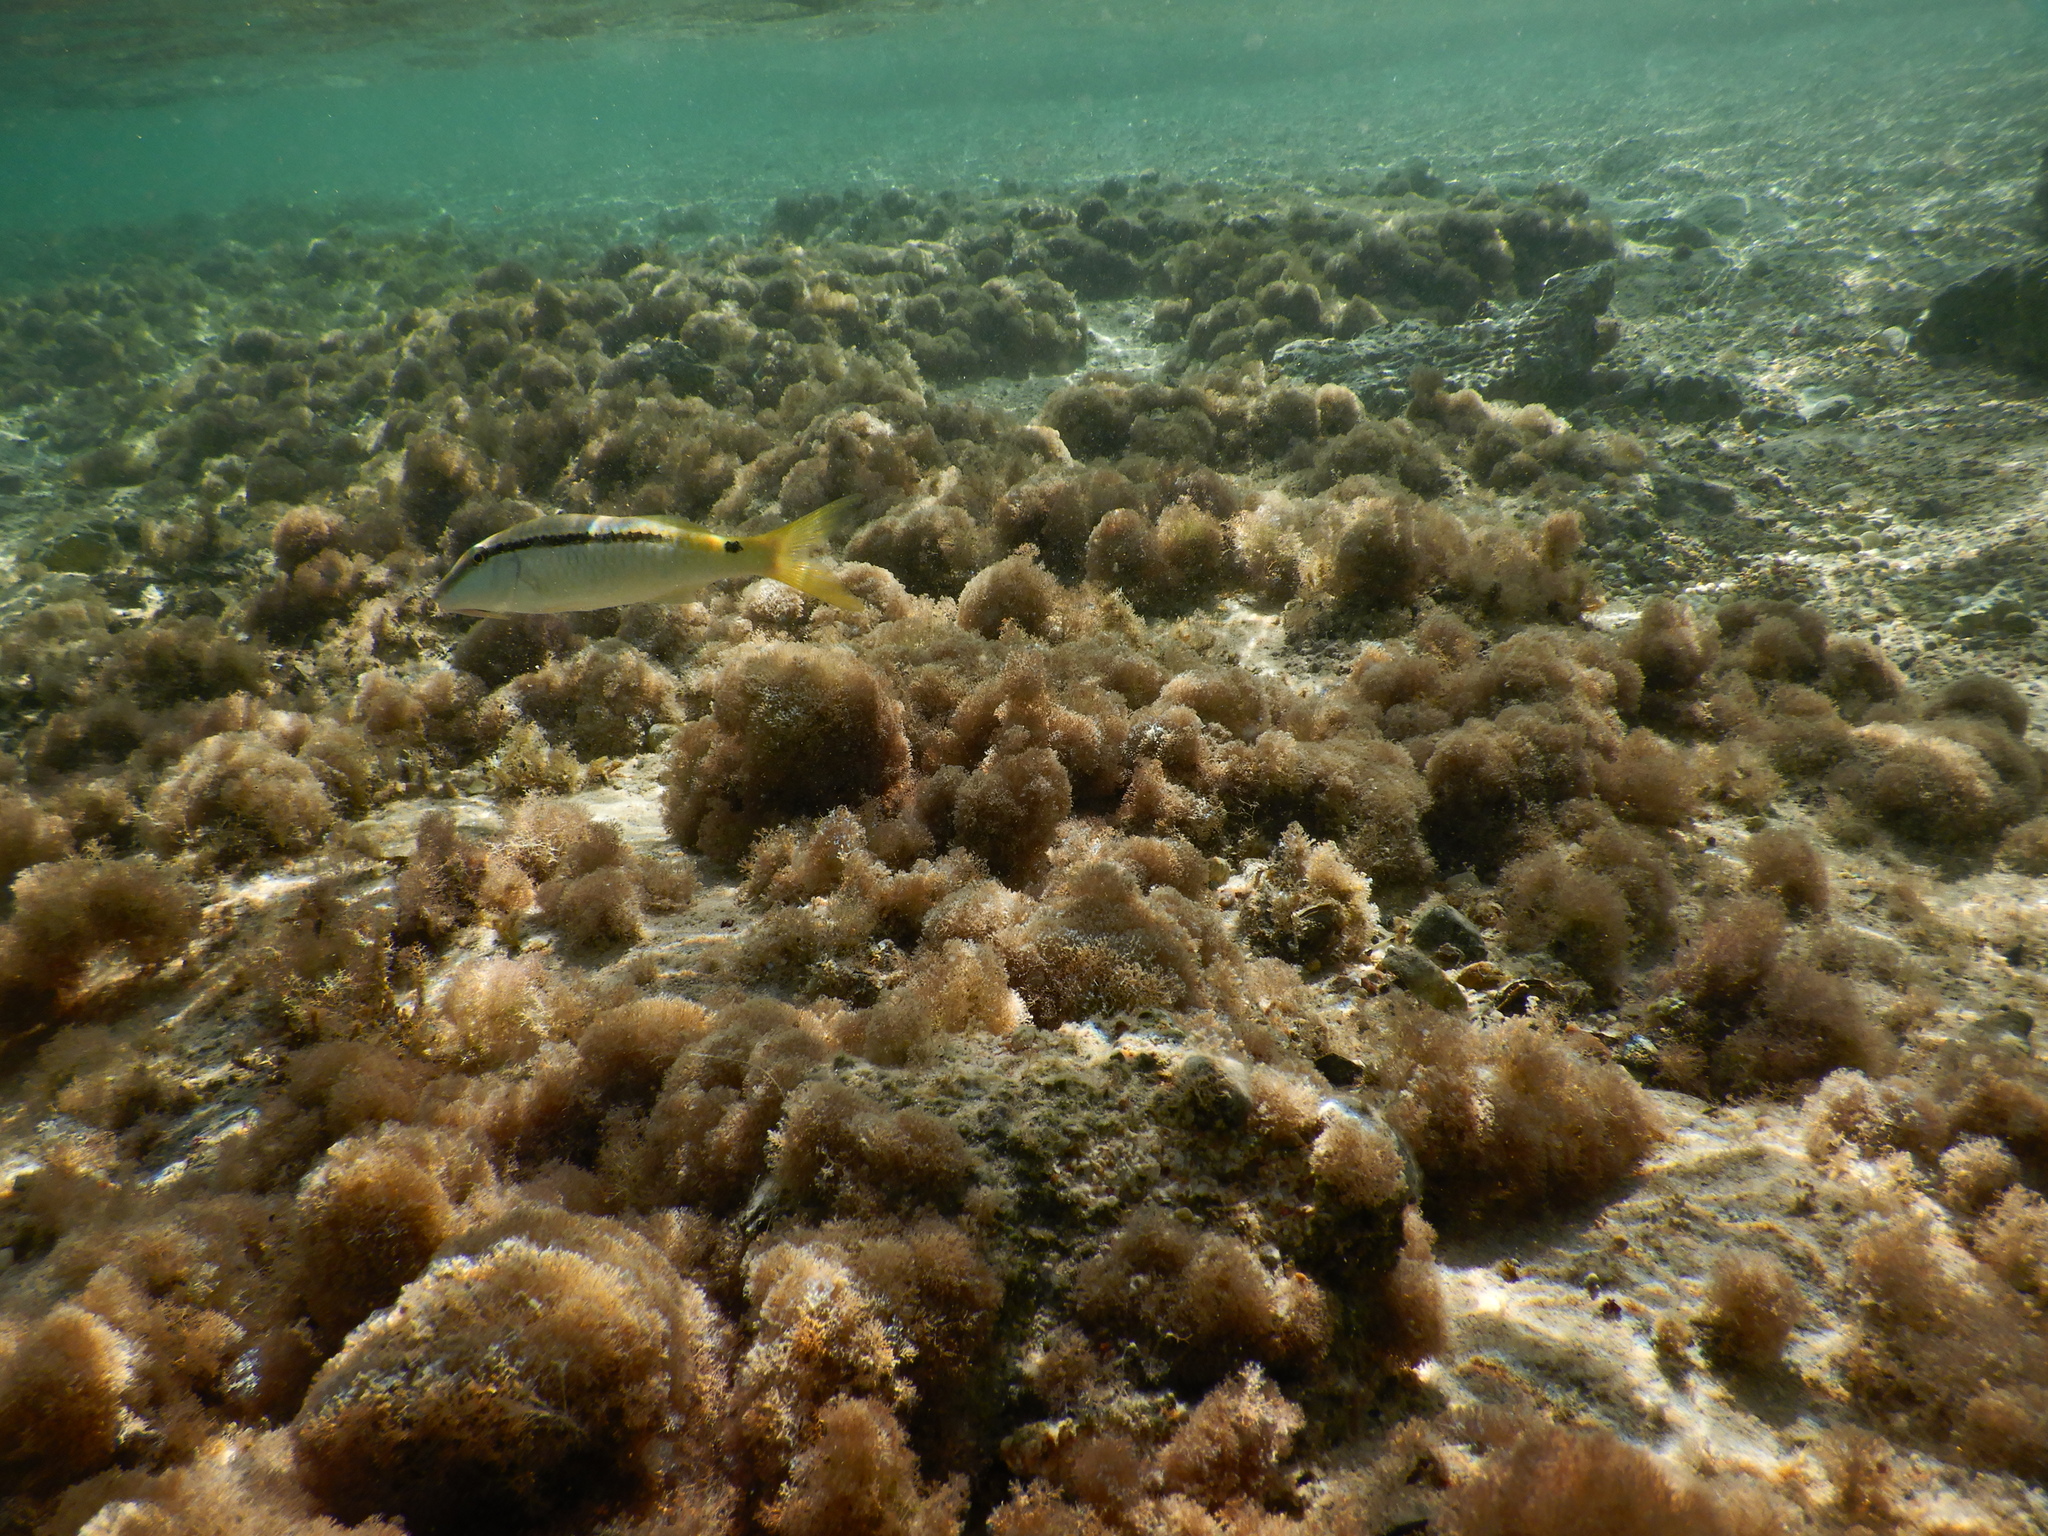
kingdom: Animalia
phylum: Chordata
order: Perciformes
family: Mullidae
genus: Parupeneus
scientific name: Parupeneus forsskali
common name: Red sea goatfish
